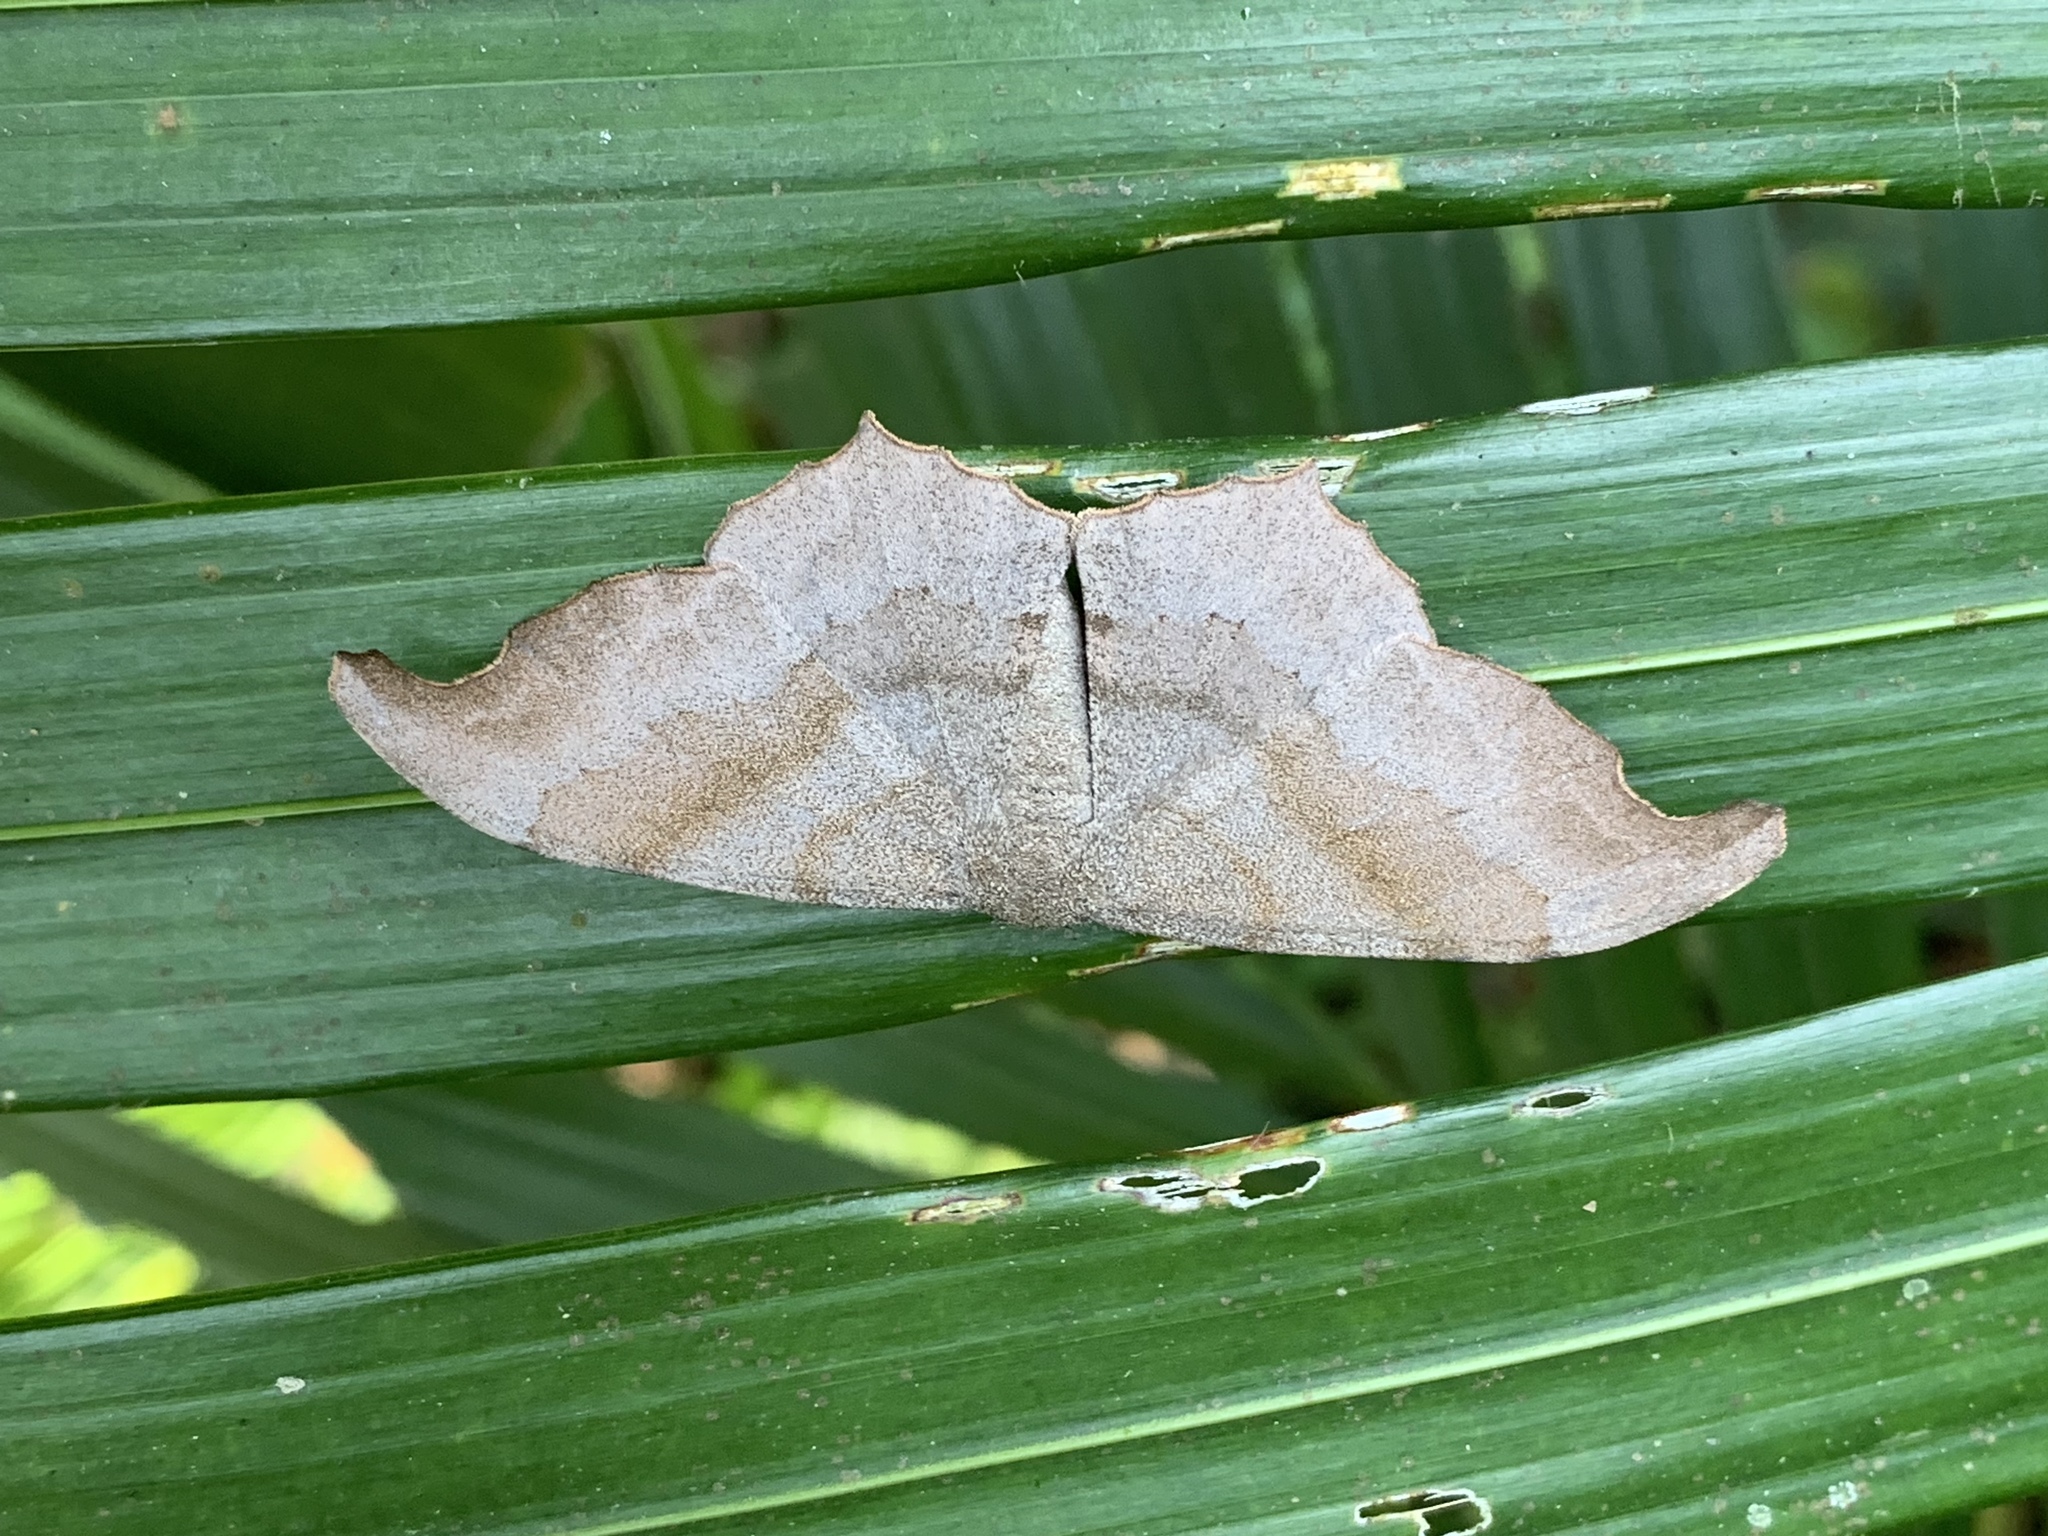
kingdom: Animalia
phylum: Arthropoda
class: Insecta
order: Lepidoptera
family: Geometridae
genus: Hyposidra
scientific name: Hyposidra talaca
